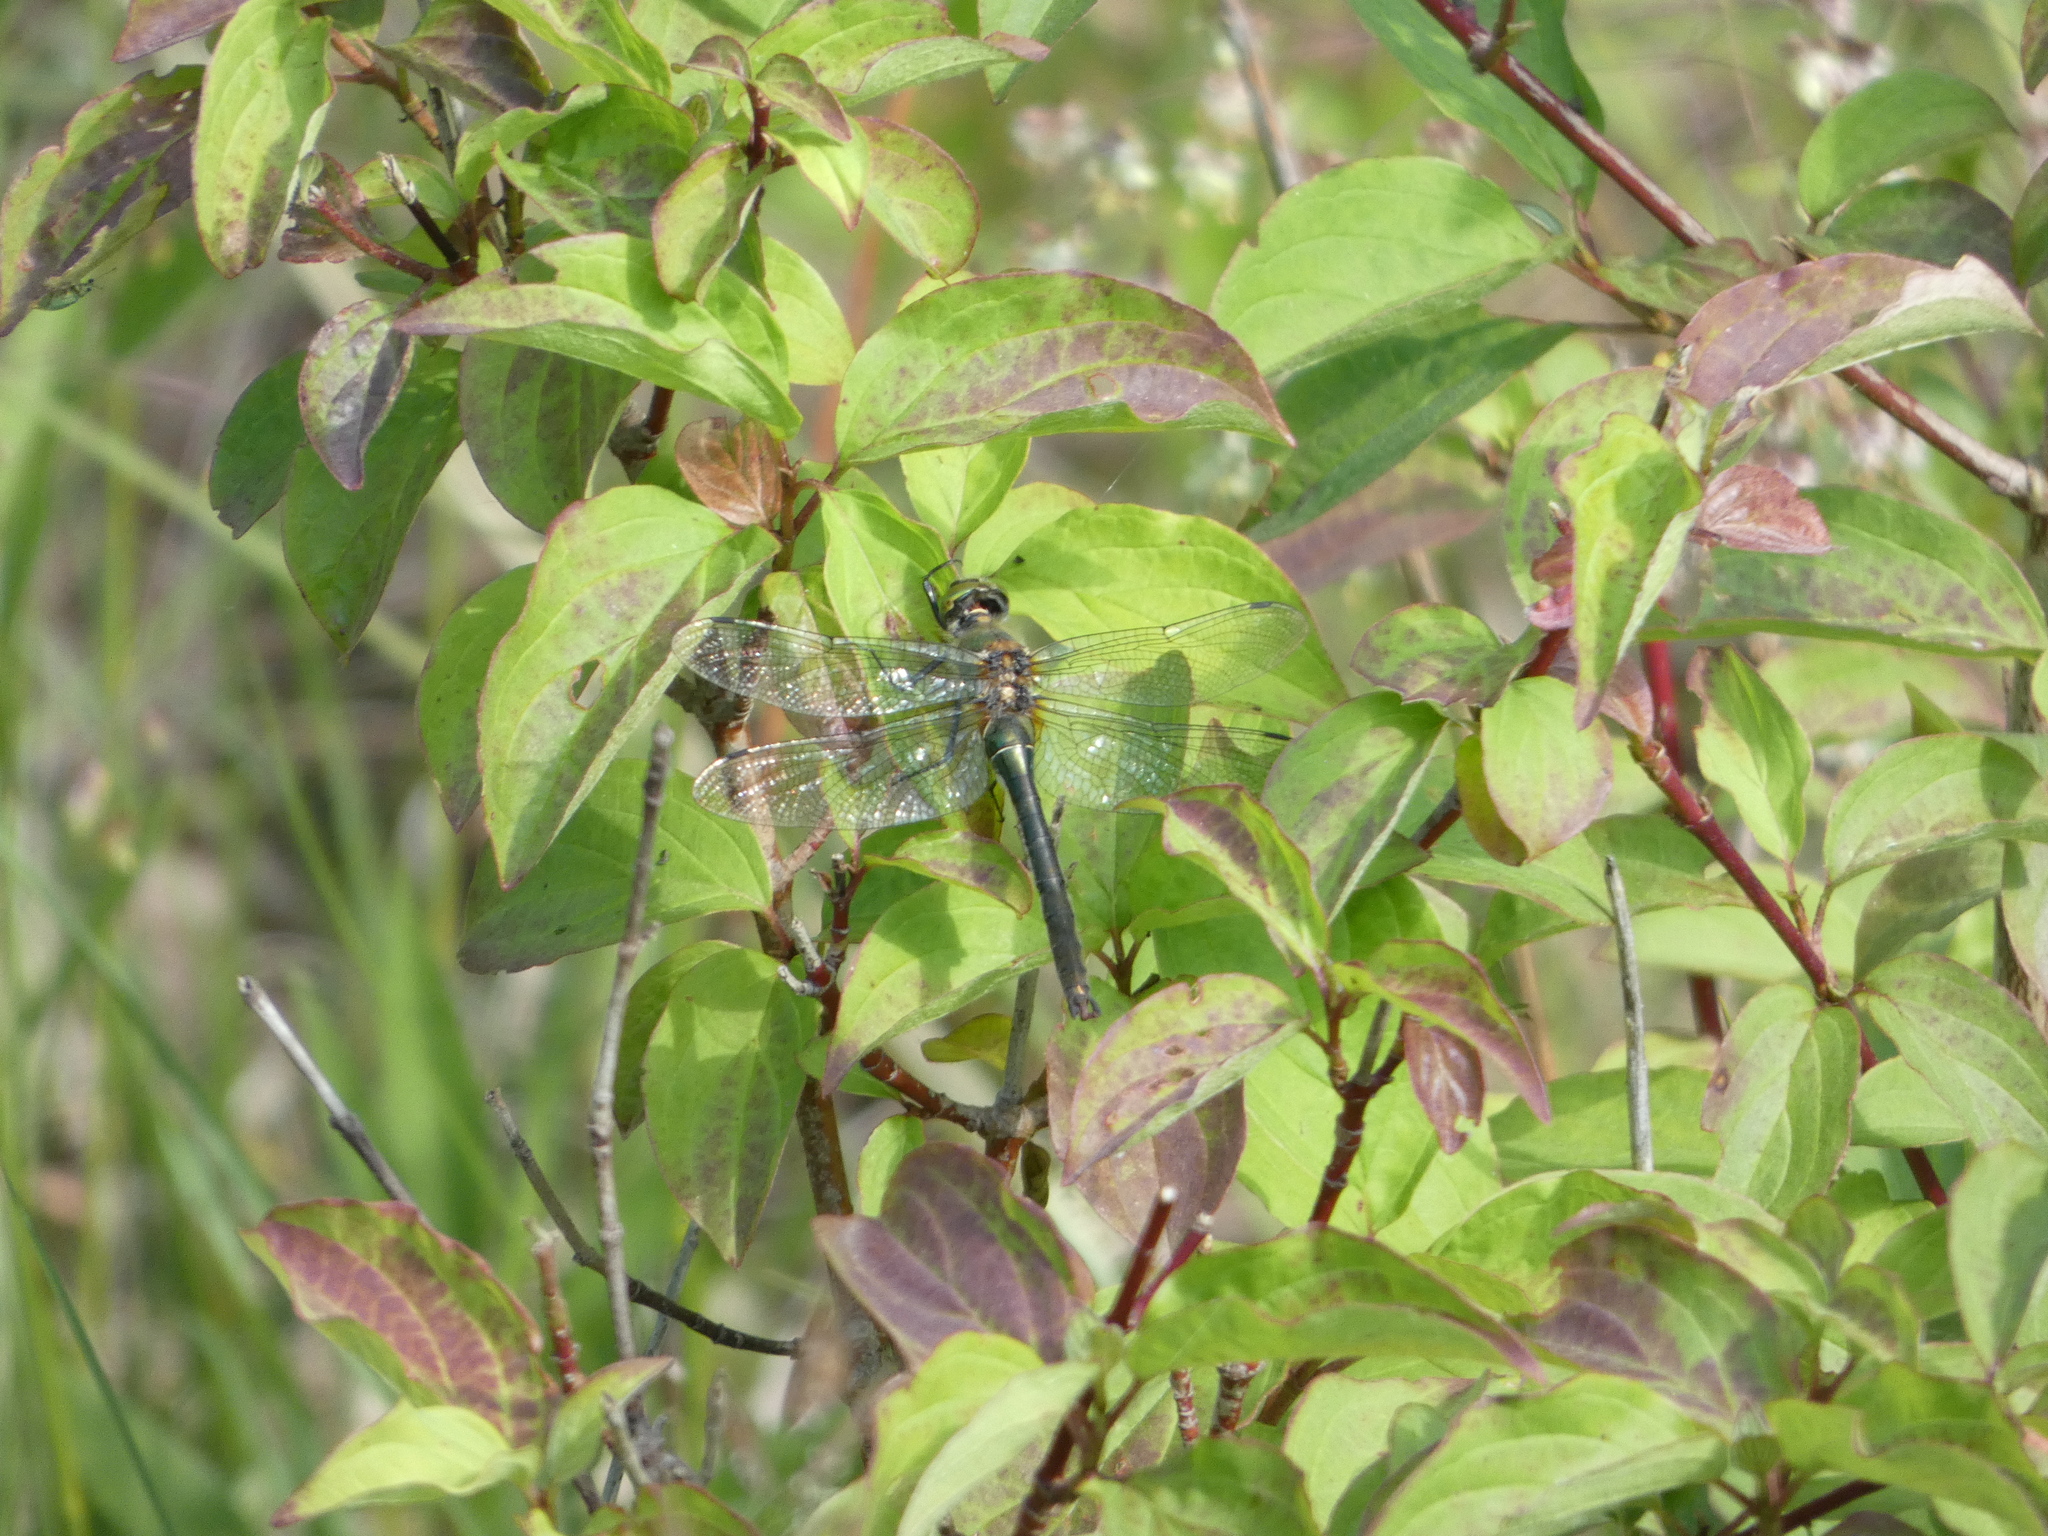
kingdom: Animalia
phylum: Arthropoda
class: Insecta
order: Odonata
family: Corduliidae
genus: Cordulia
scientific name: Cordulia aenea
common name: Downy emerald
